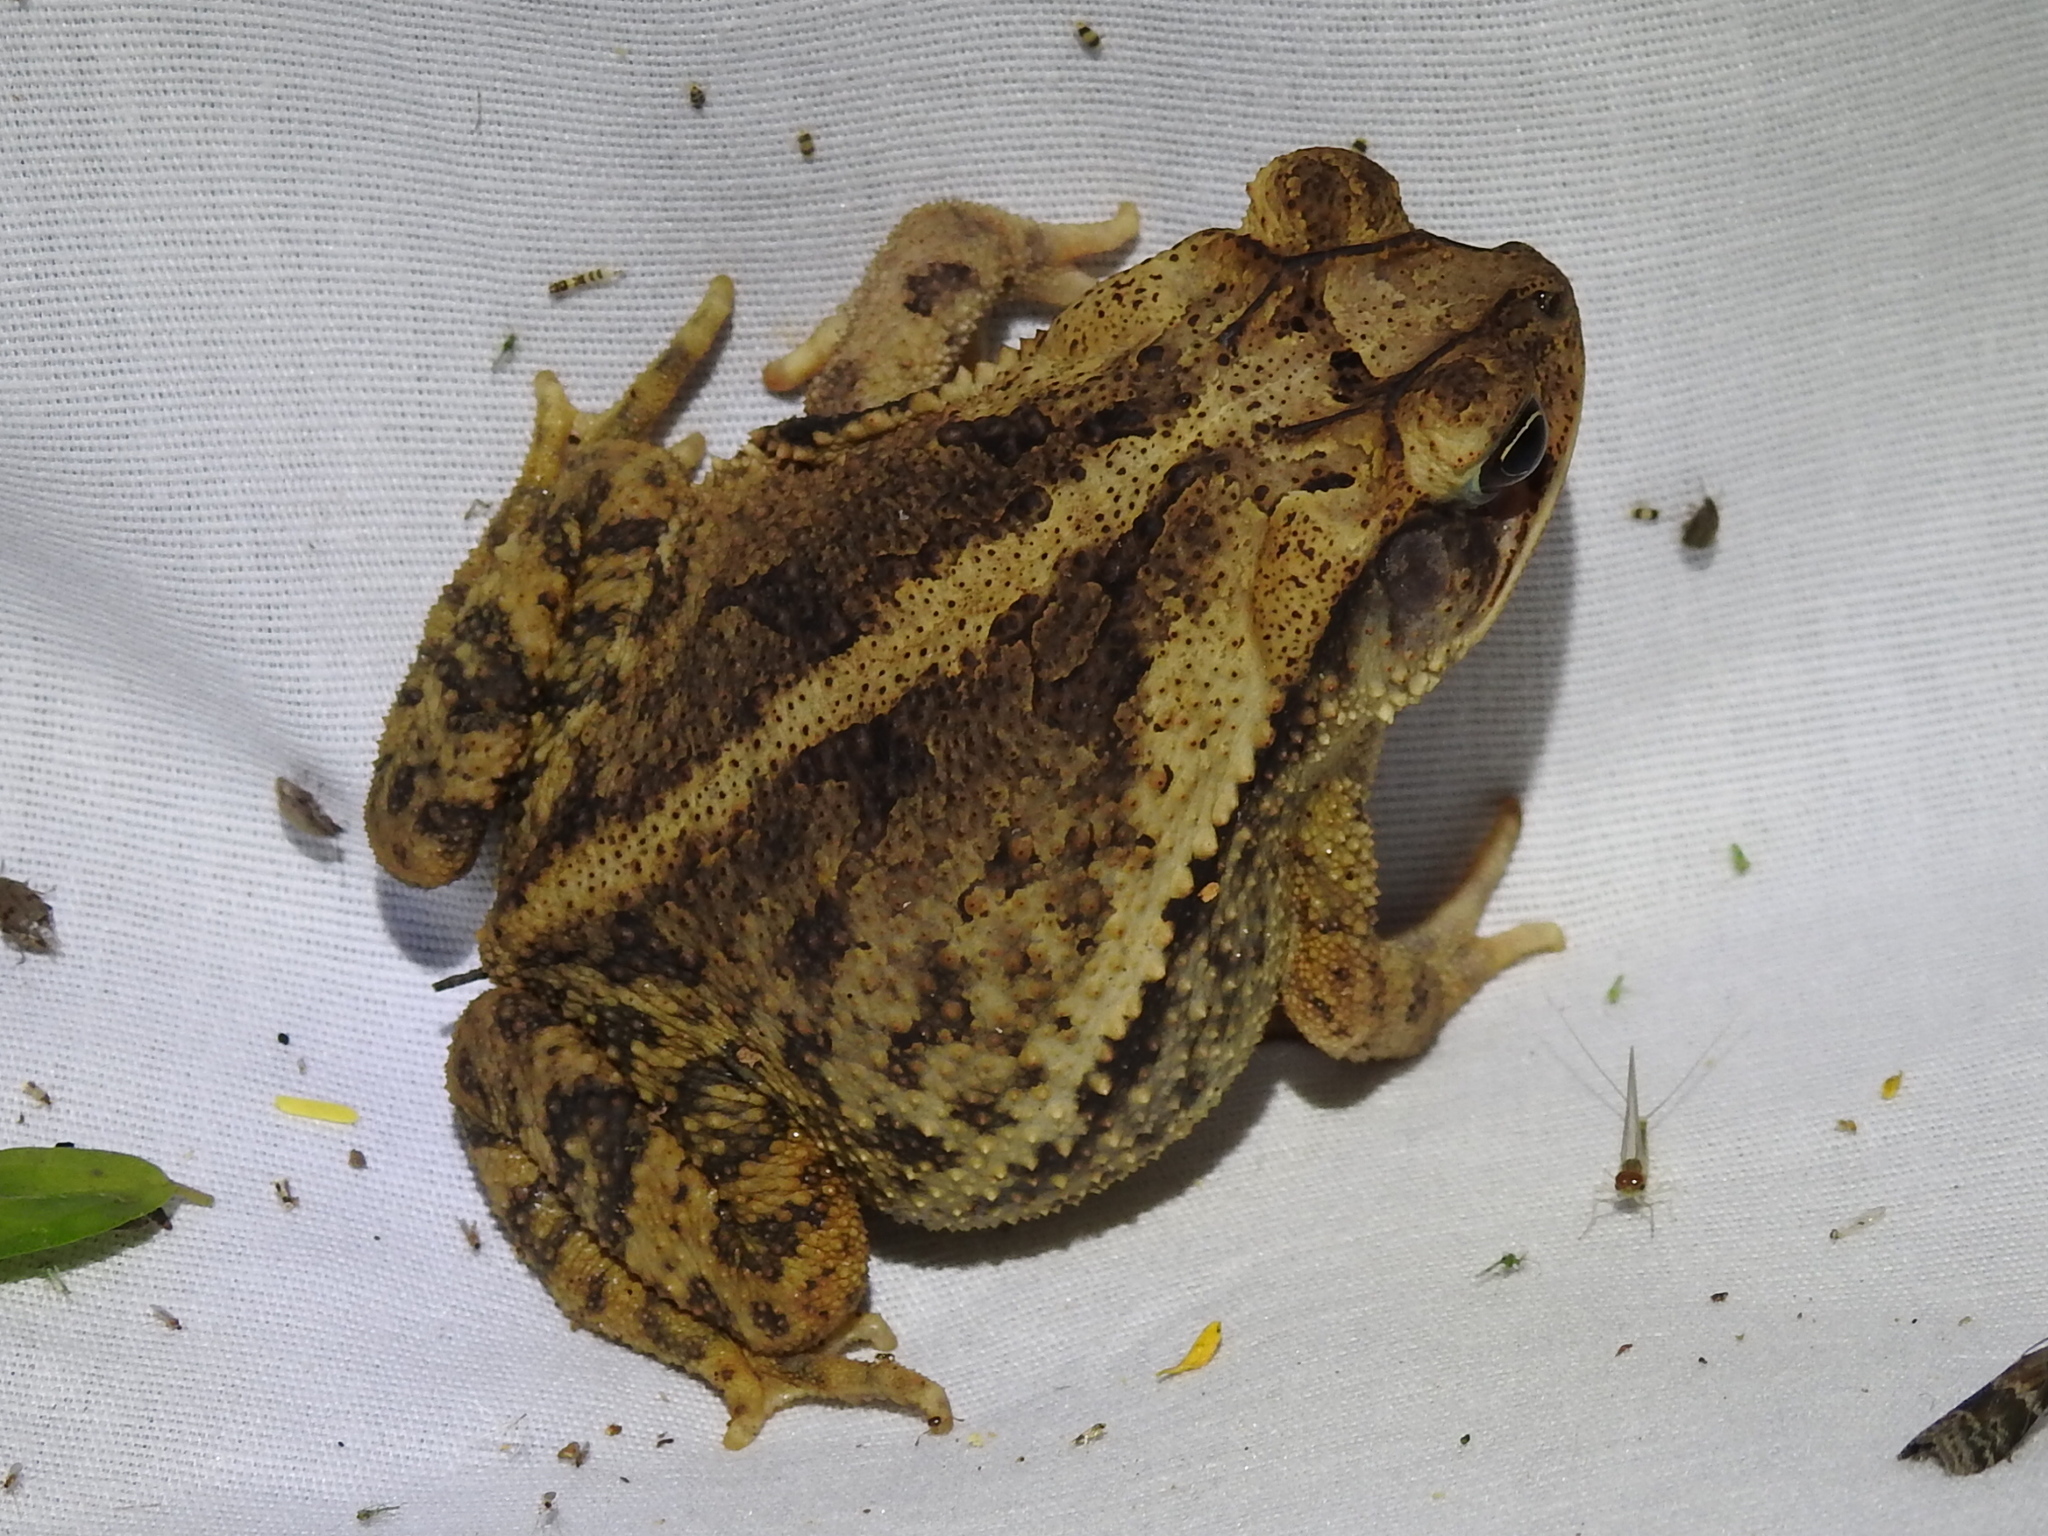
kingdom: Animalia
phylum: Chordata
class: Amphibia
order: Anura
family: Bufonidae
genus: Incilius
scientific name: Incilius nebulifer
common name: Gulf coast toad
